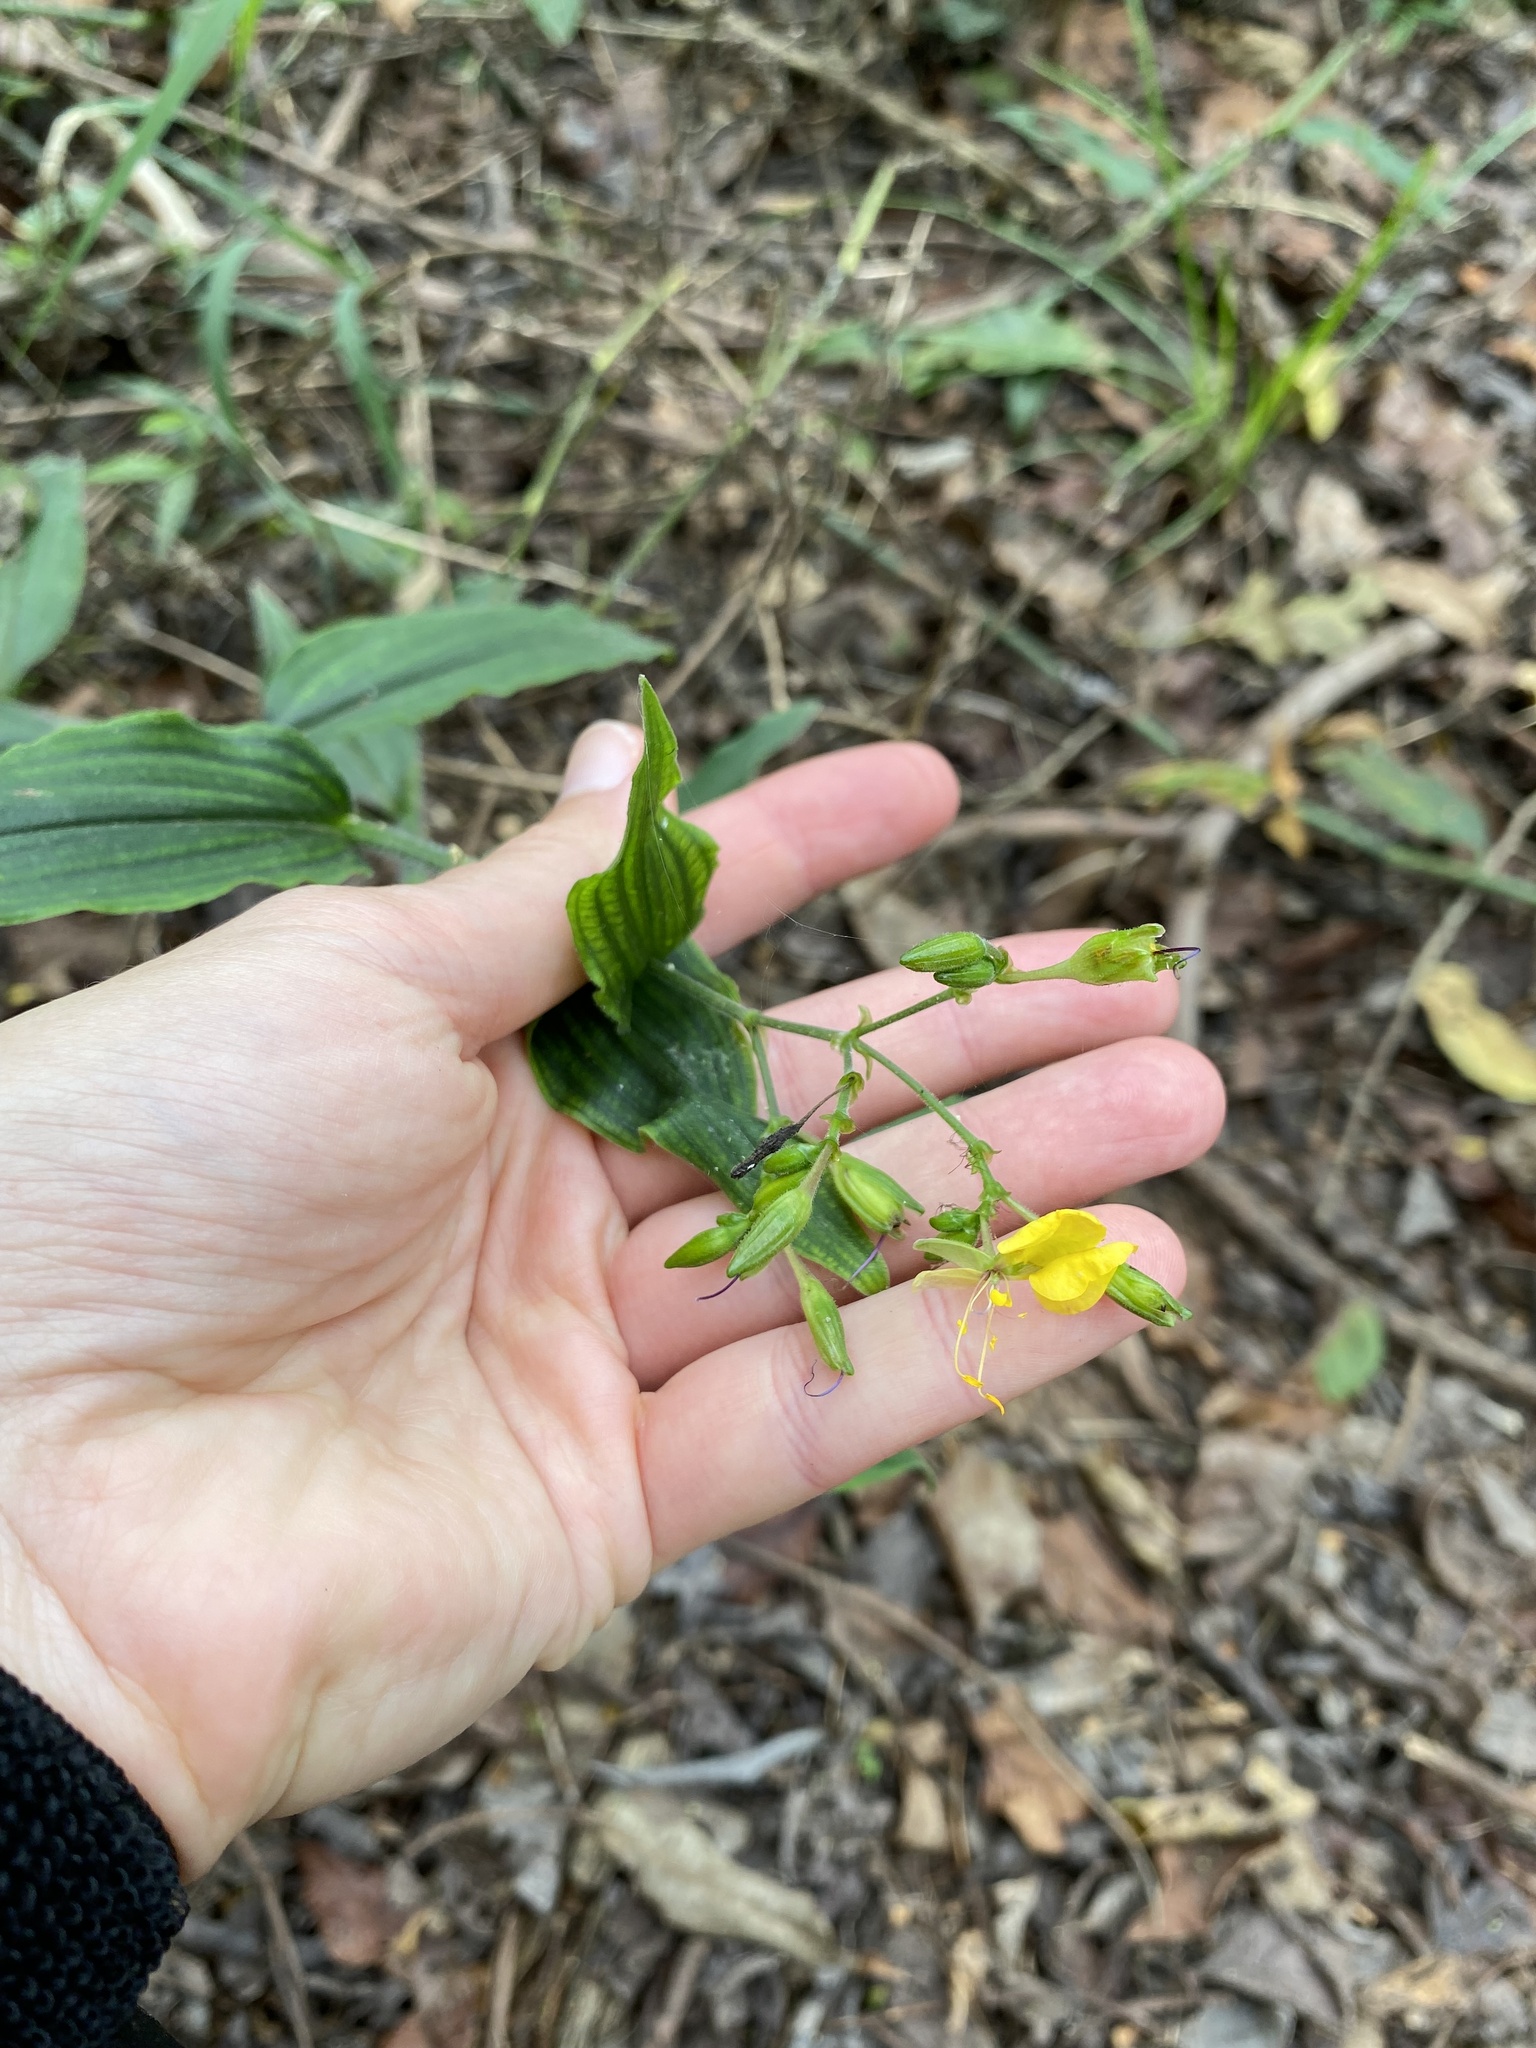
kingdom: Plantae
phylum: Tracheophyta
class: Liliopsida
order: Commelinales
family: Commelinaceae
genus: Aneilema
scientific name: Aneilema aequinoctiale
